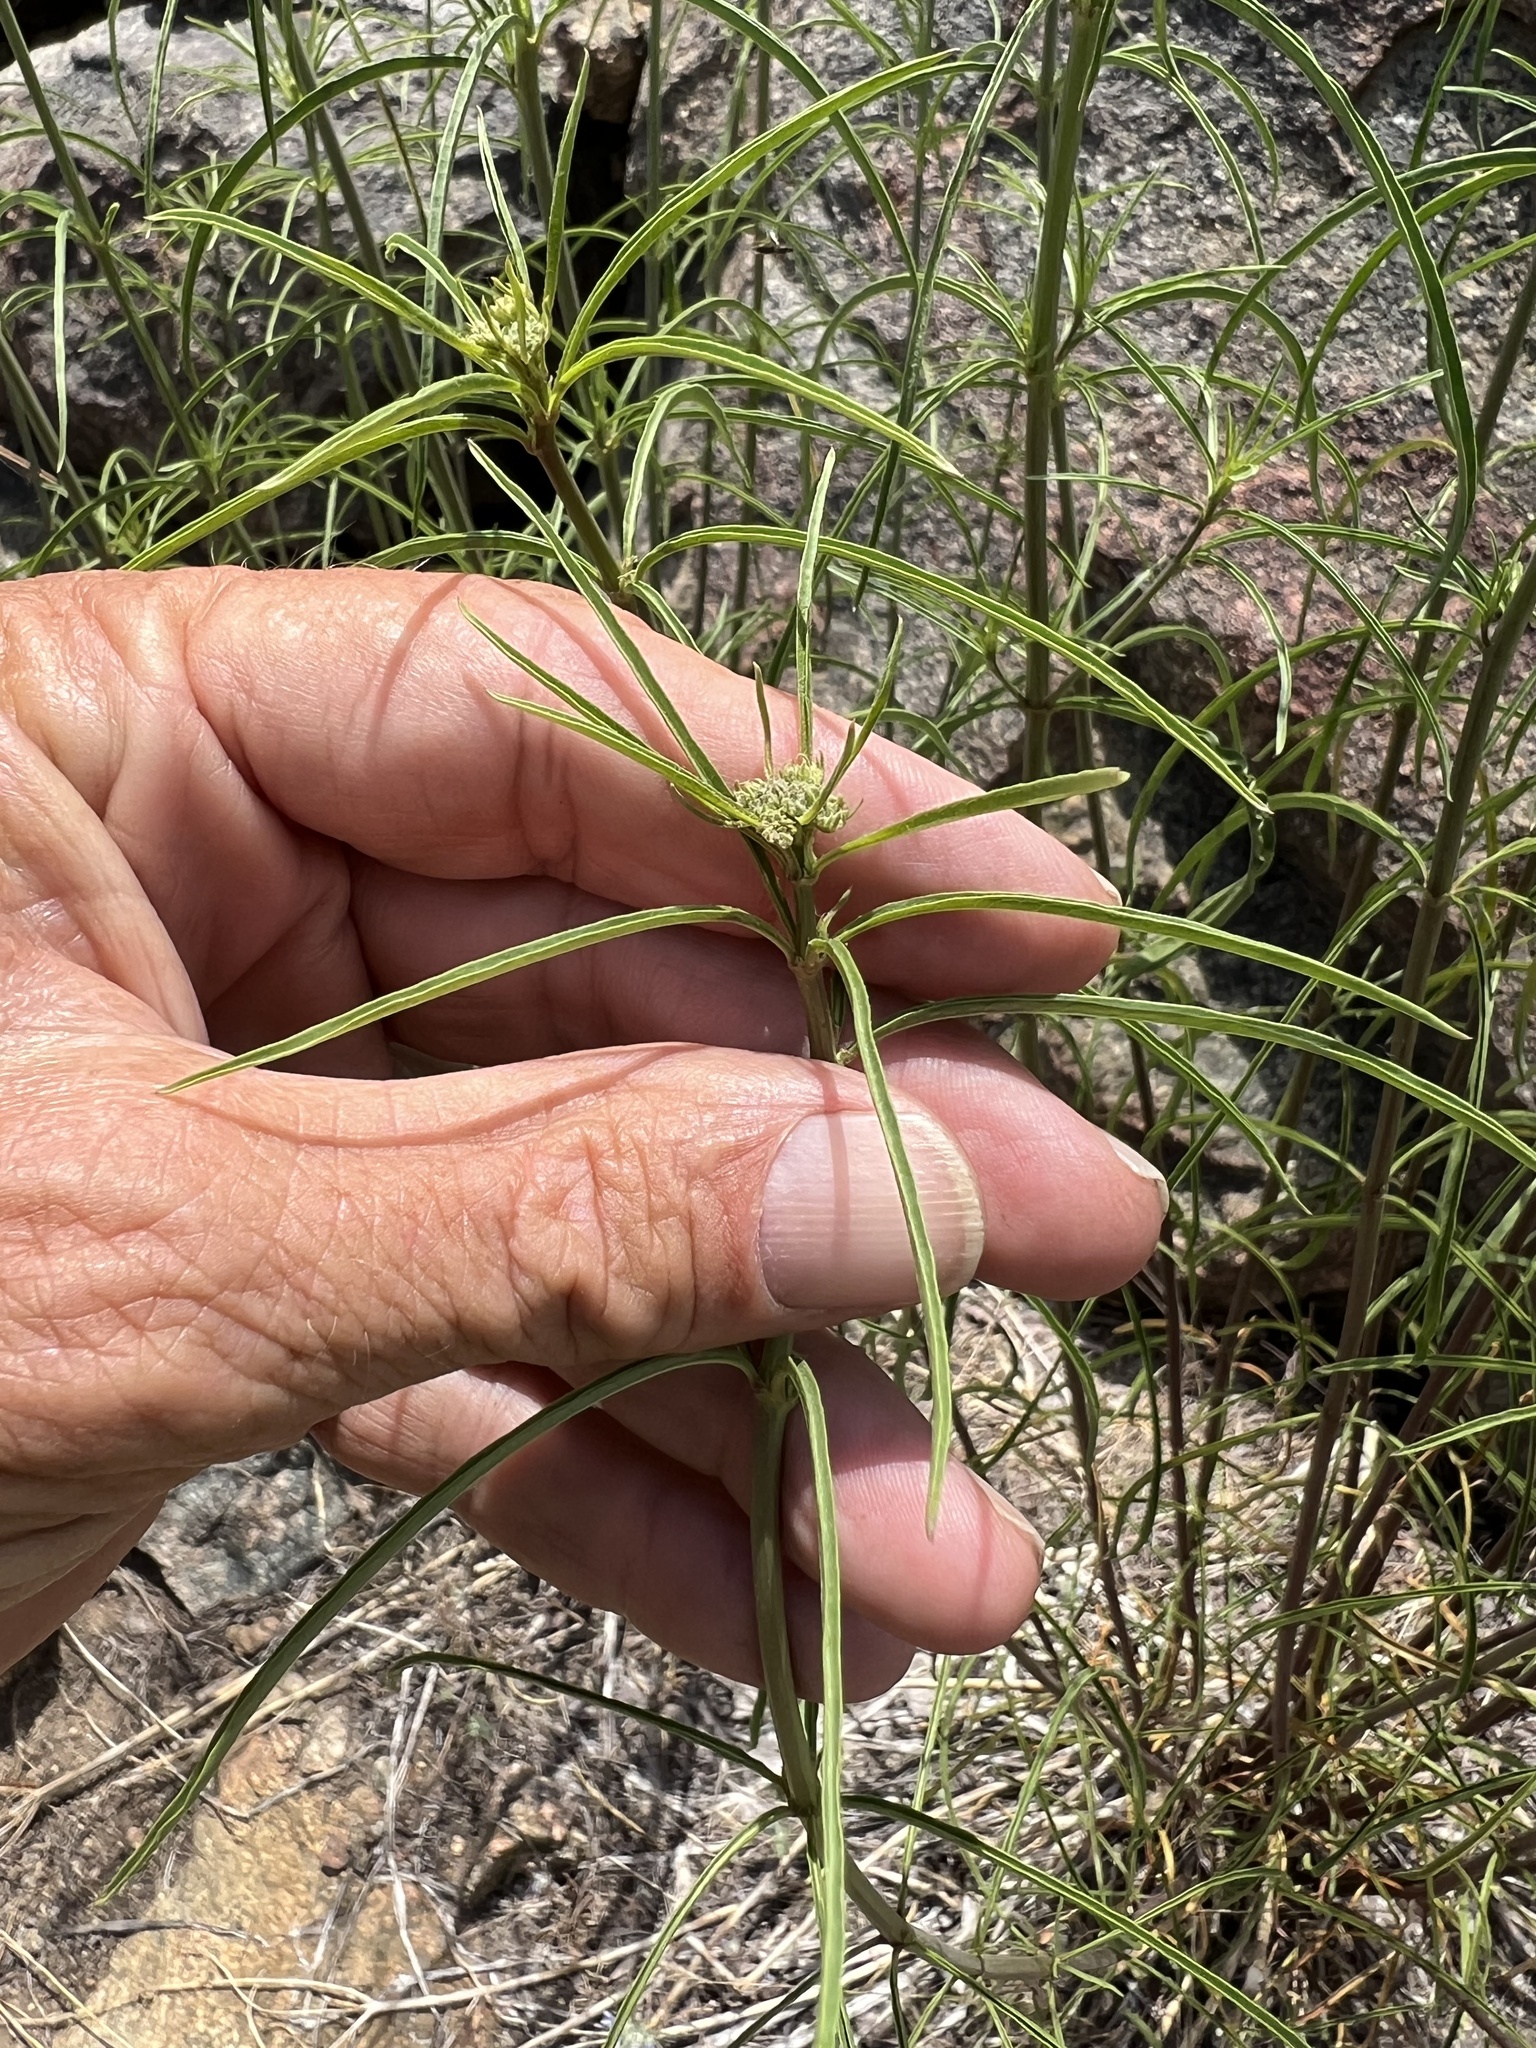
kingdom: Plantae
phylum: Tracheophyta
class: Magnoliopsida
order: Gentianales
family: Apocynaceae
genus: Asclepias
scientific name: Asclepias fascicularis
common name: Mexican milkweed
